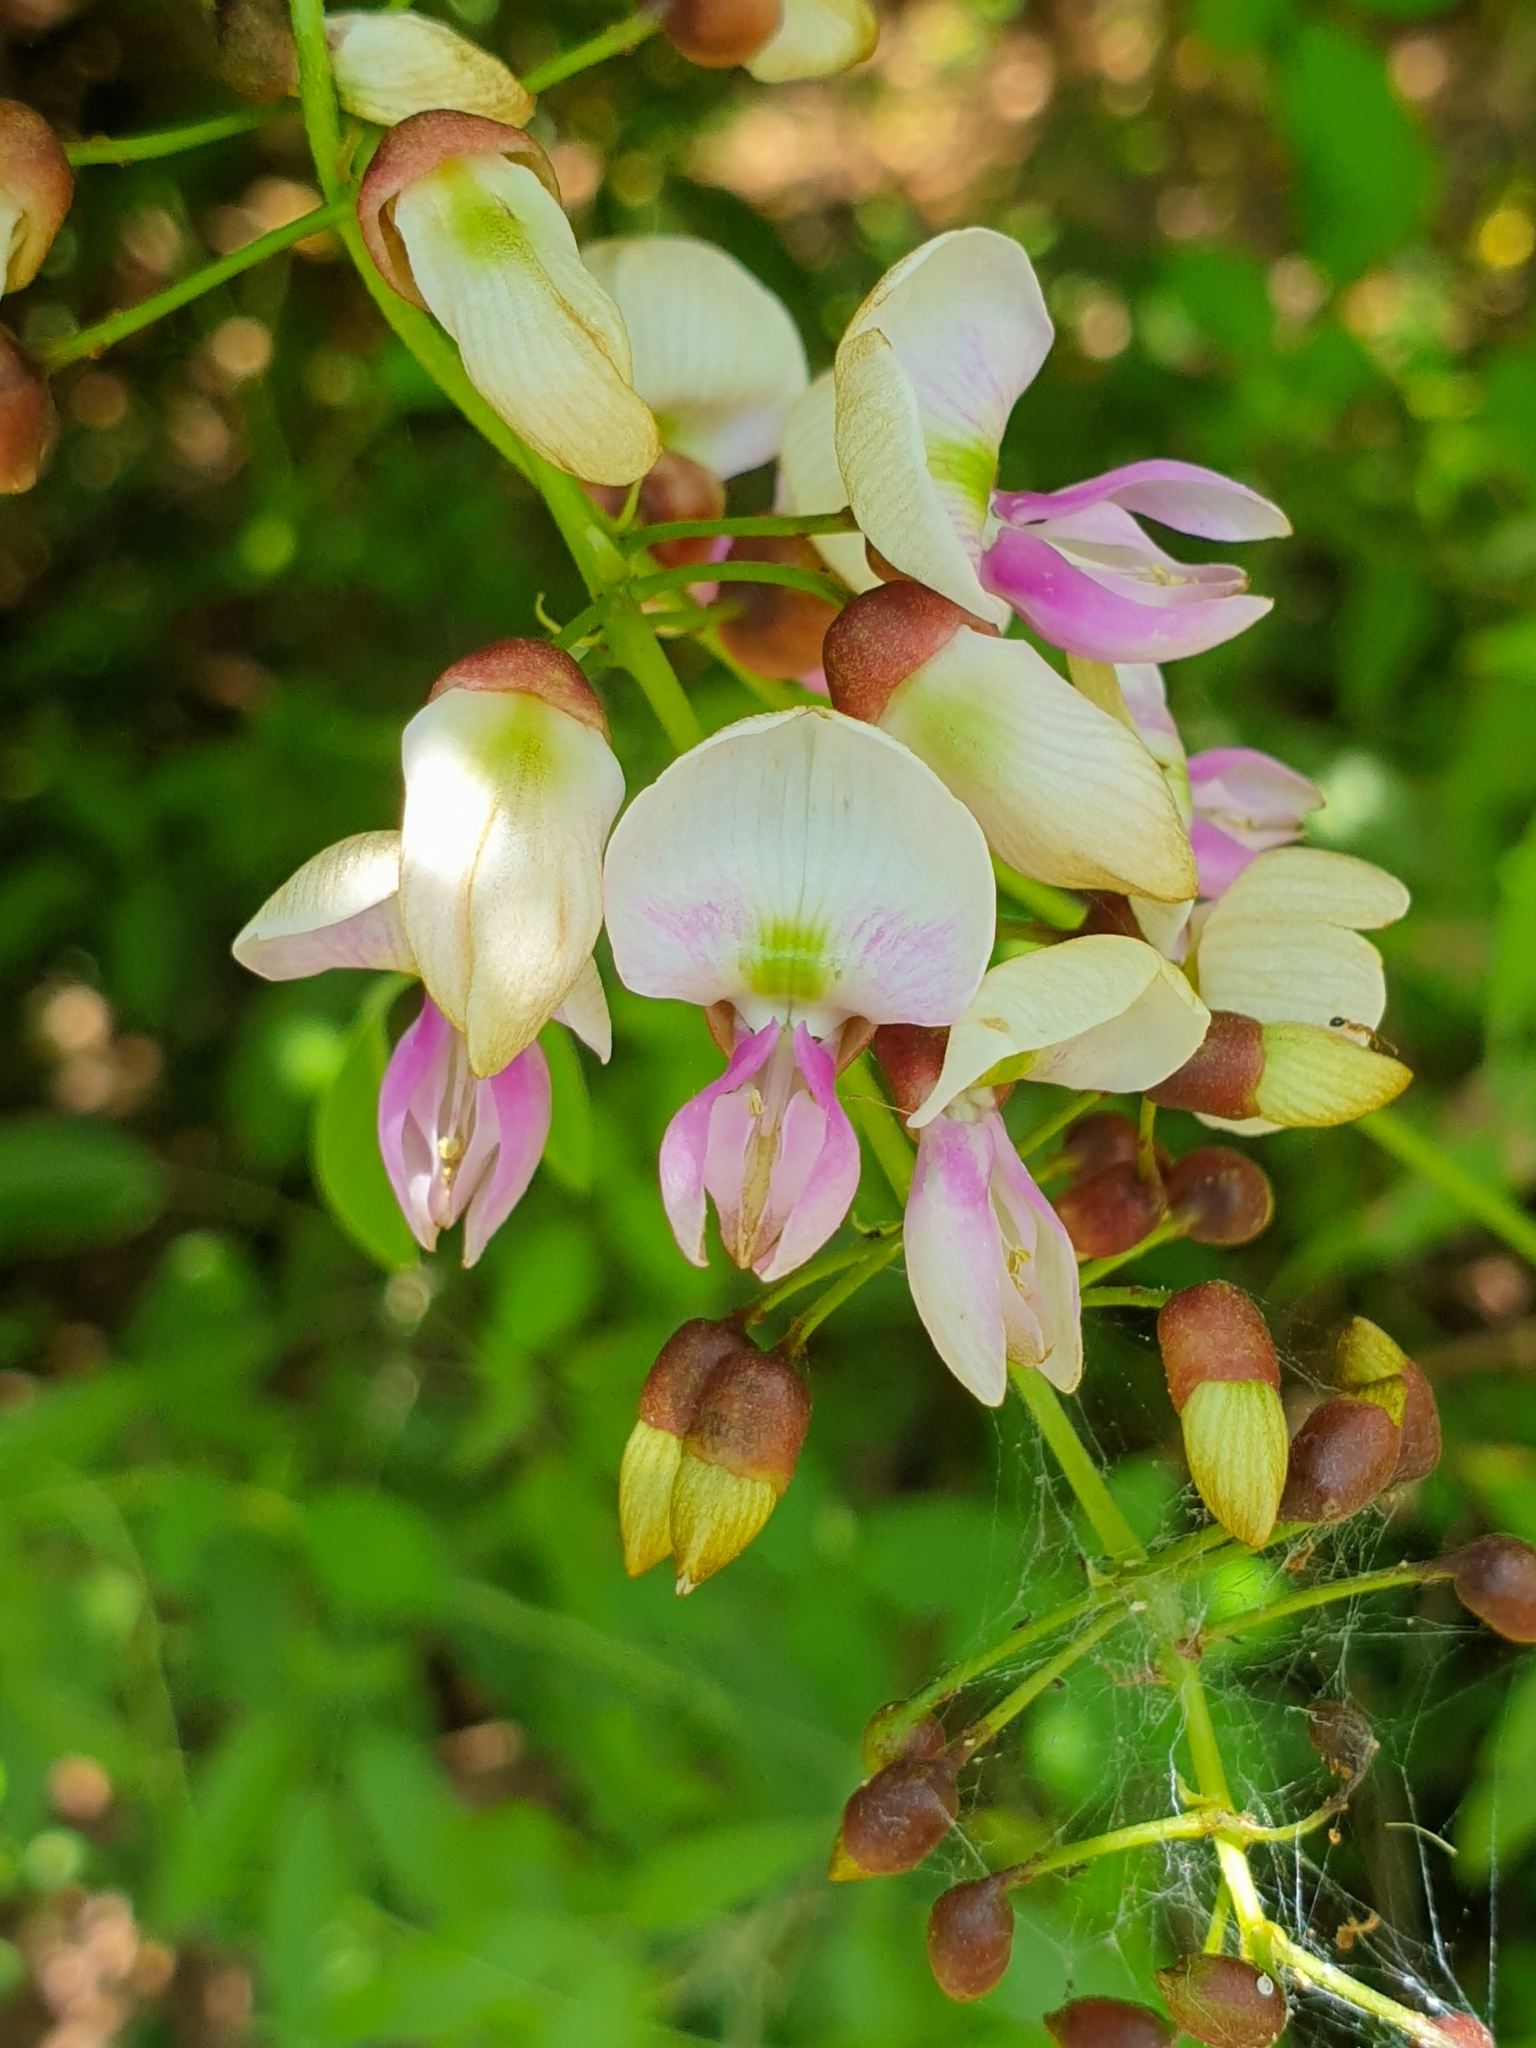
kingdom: Plantae
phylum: Tracheophyta
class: Magnoliopsida
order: Fabales
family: Fabaceae
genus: Pongamia
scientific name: Pongamia pinnata
